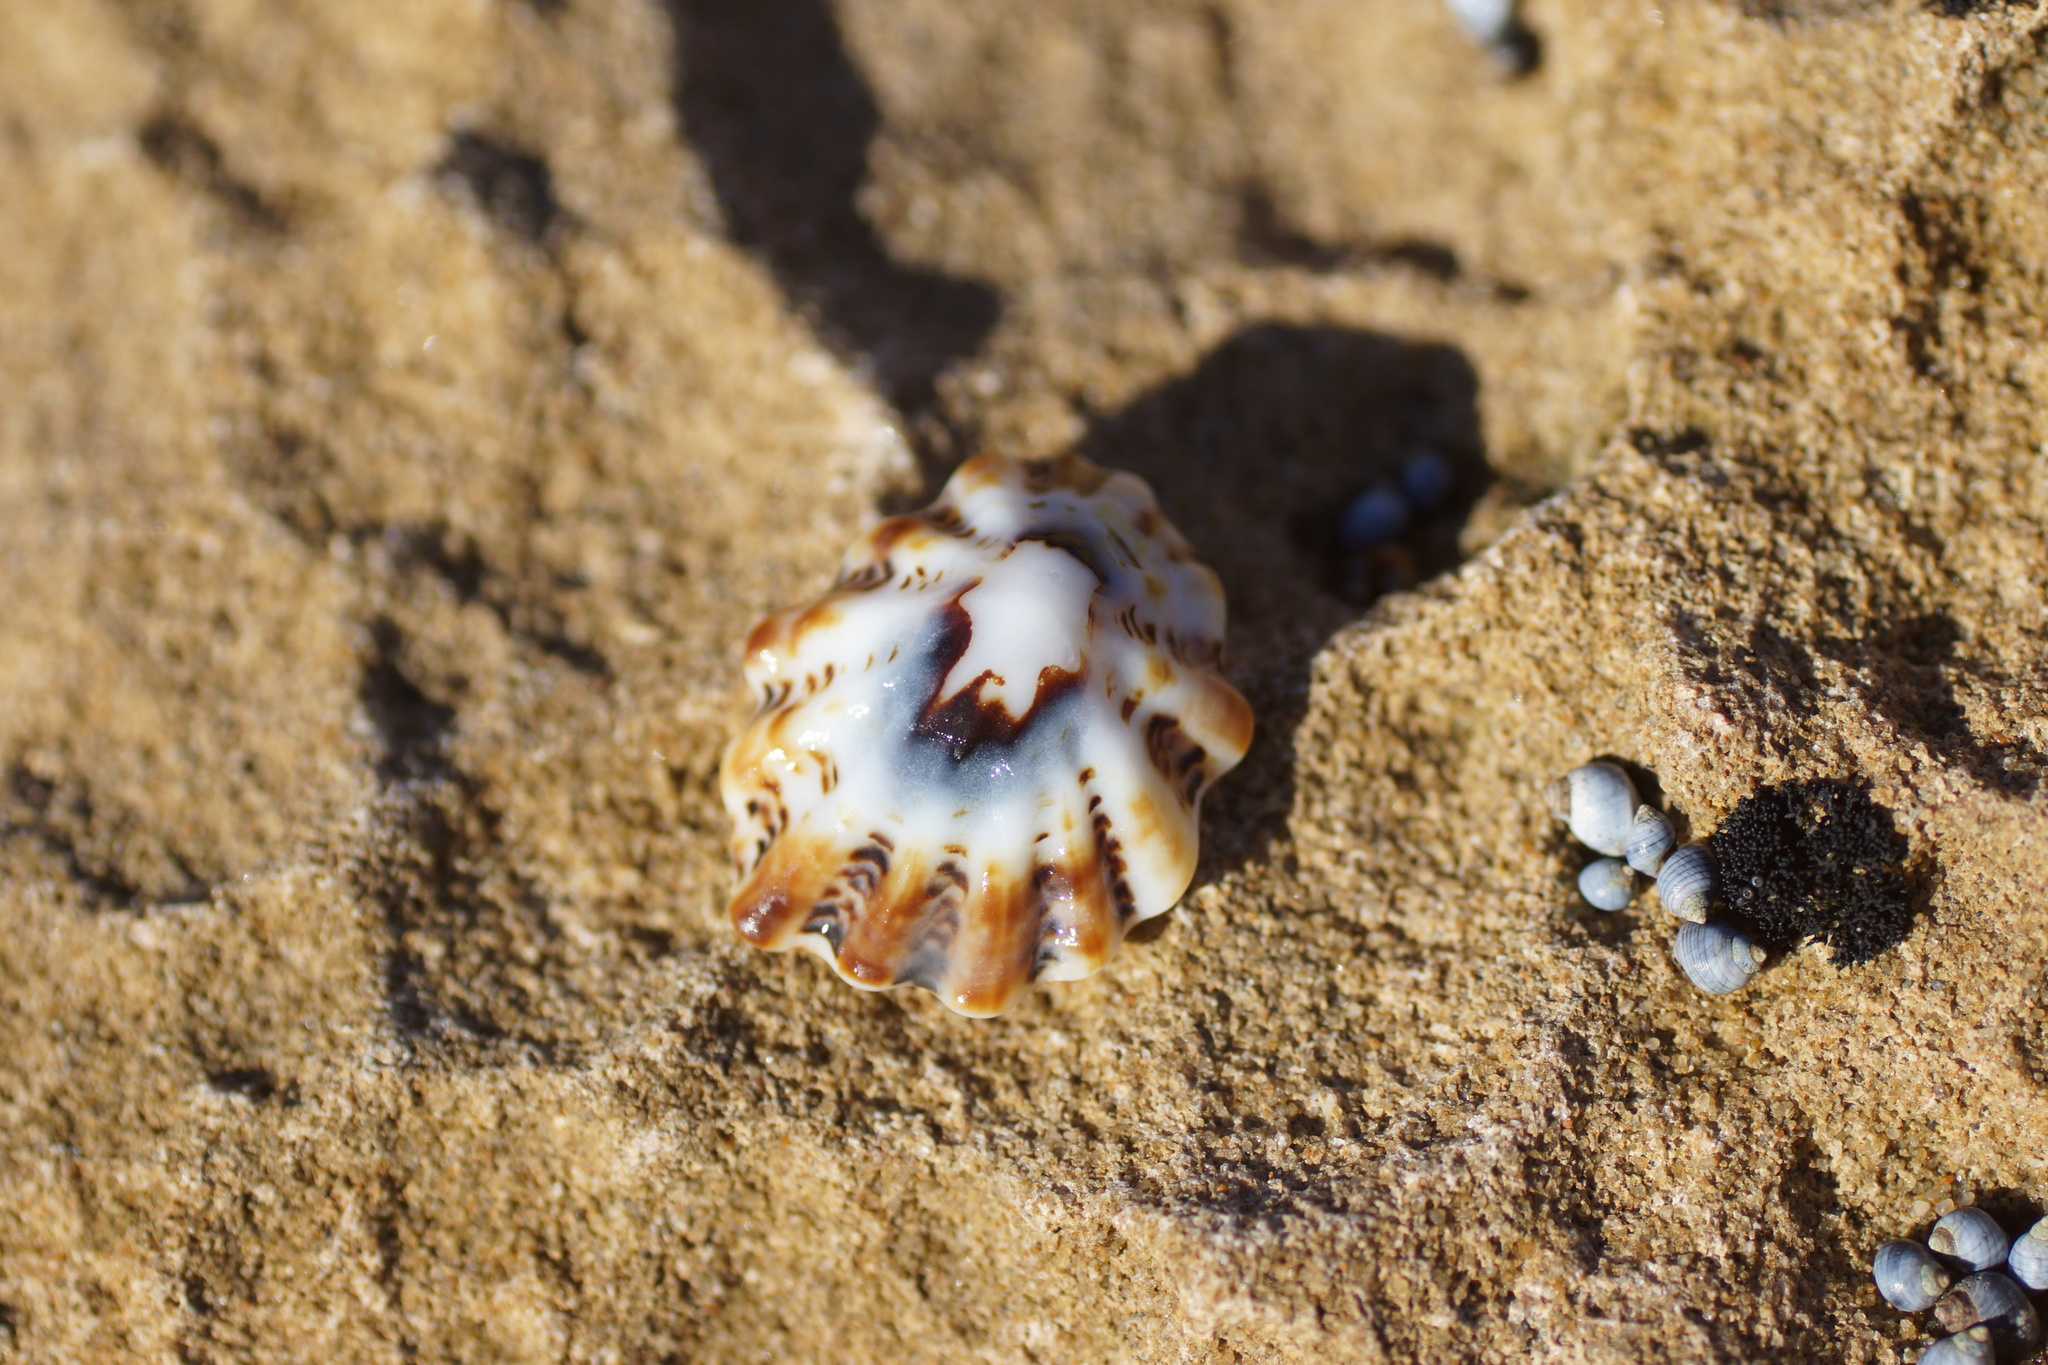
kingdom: Animalia
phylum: Mollusca
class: Gastropoda
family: Lottiidae
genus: Patelloida
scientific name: Patelloida alticostata
